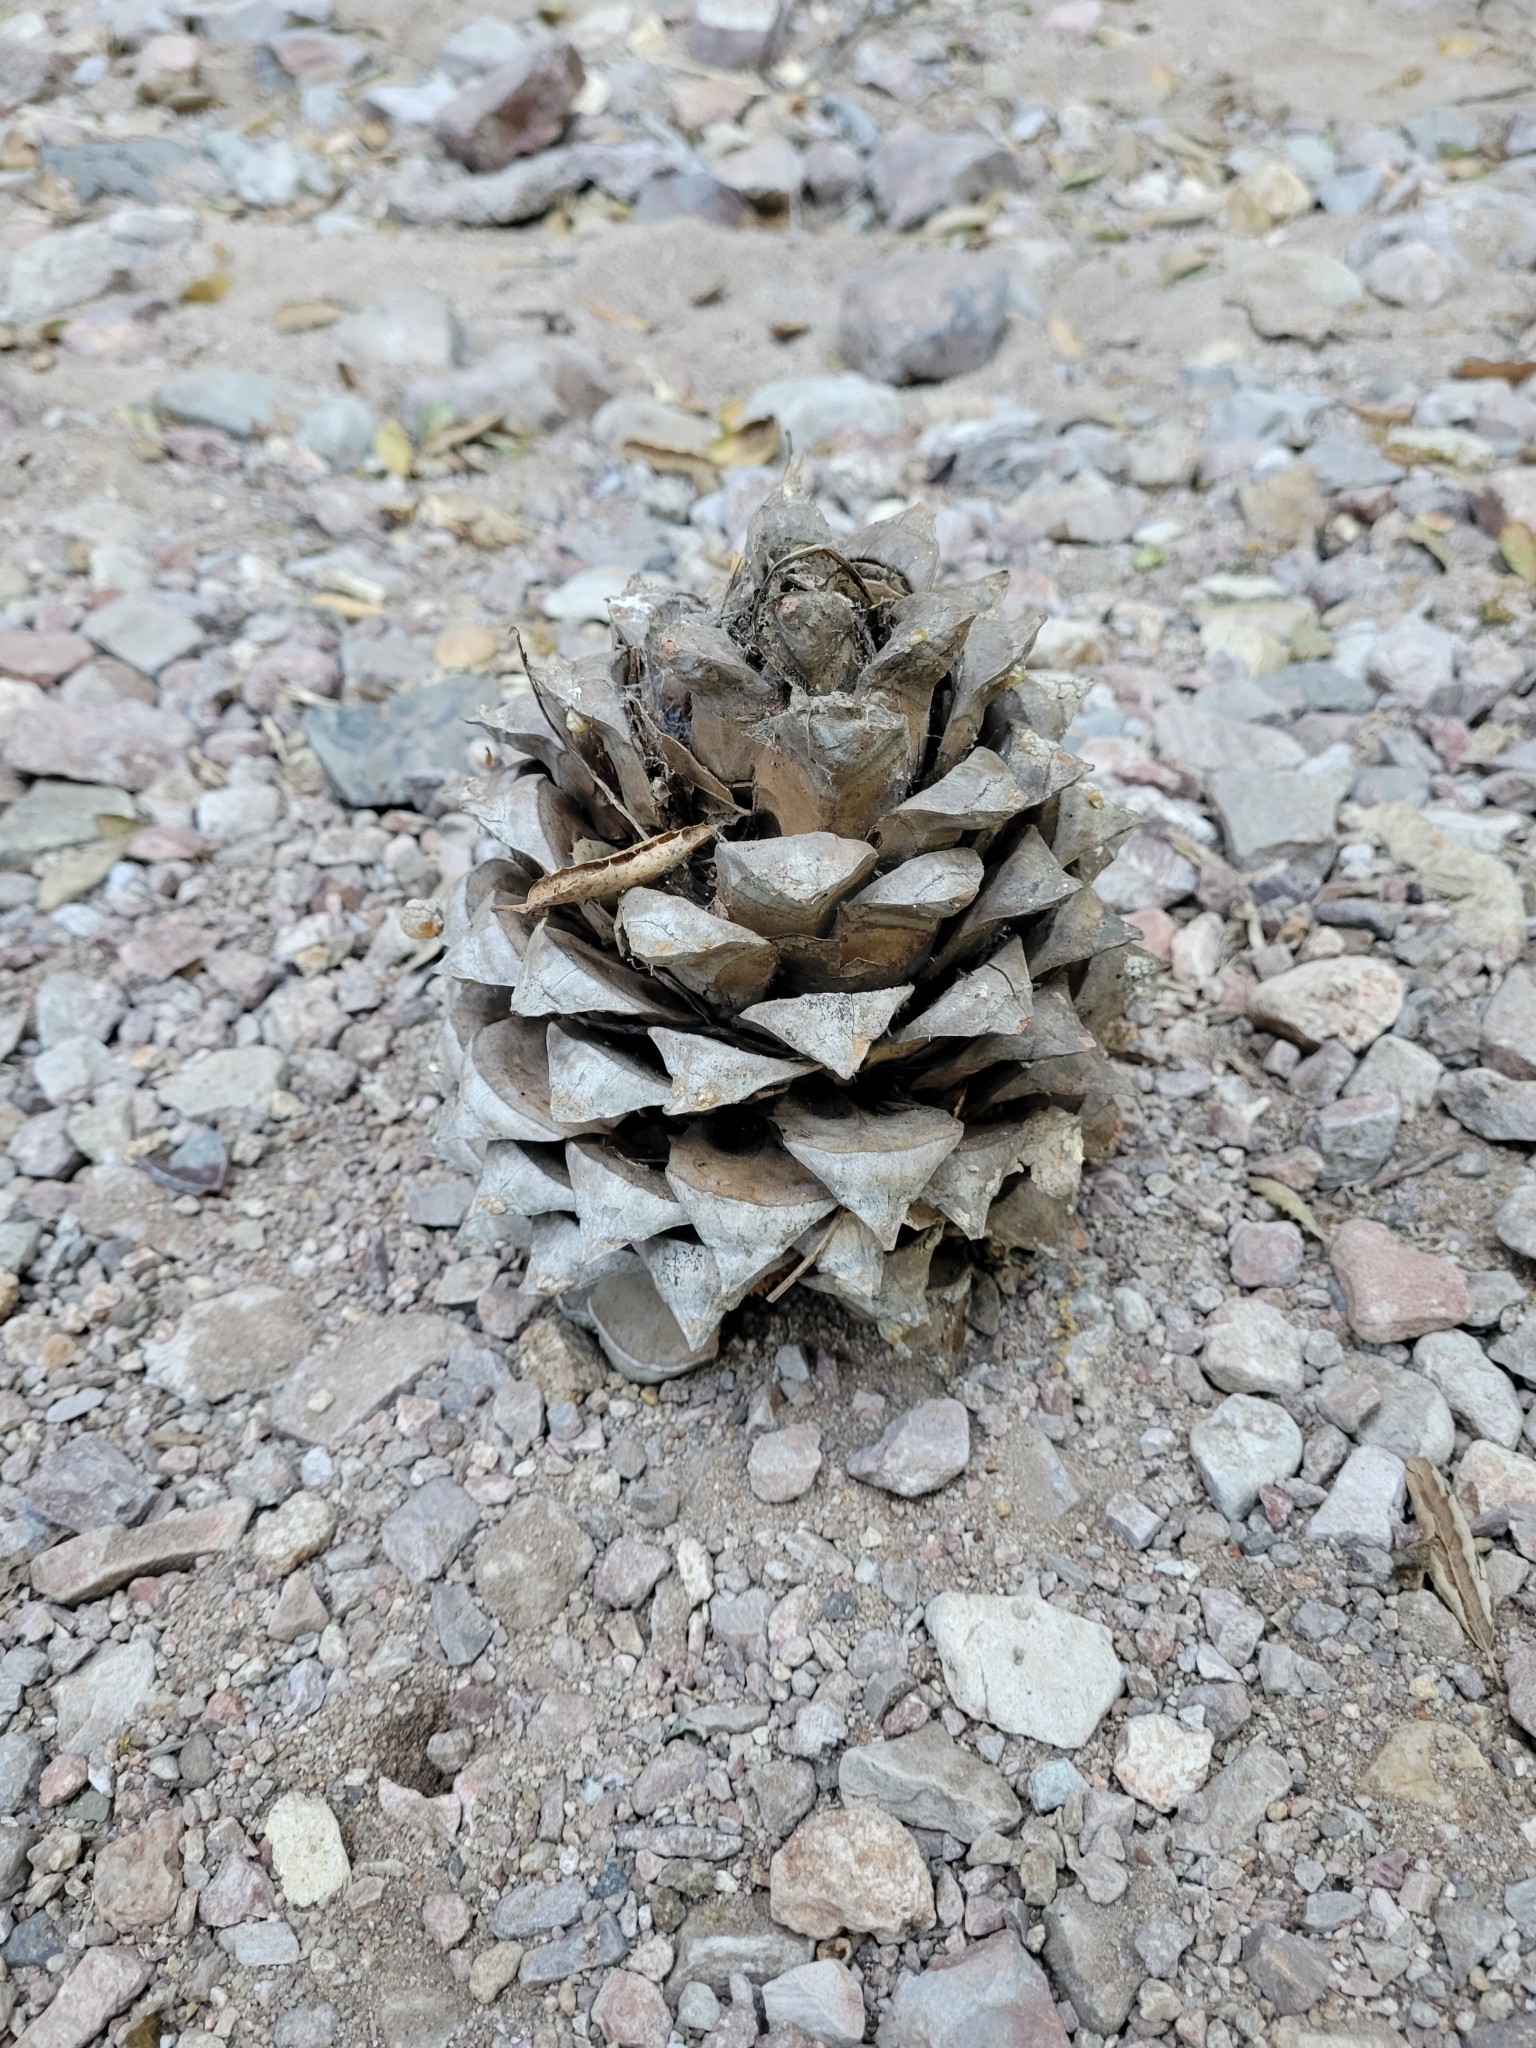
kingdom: Plantae
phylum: Tracheophyta
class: Pinopsida
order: Pinales
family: Pinaceae
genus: Pinus
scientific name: Pinus sabiniana
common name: Bull pine
